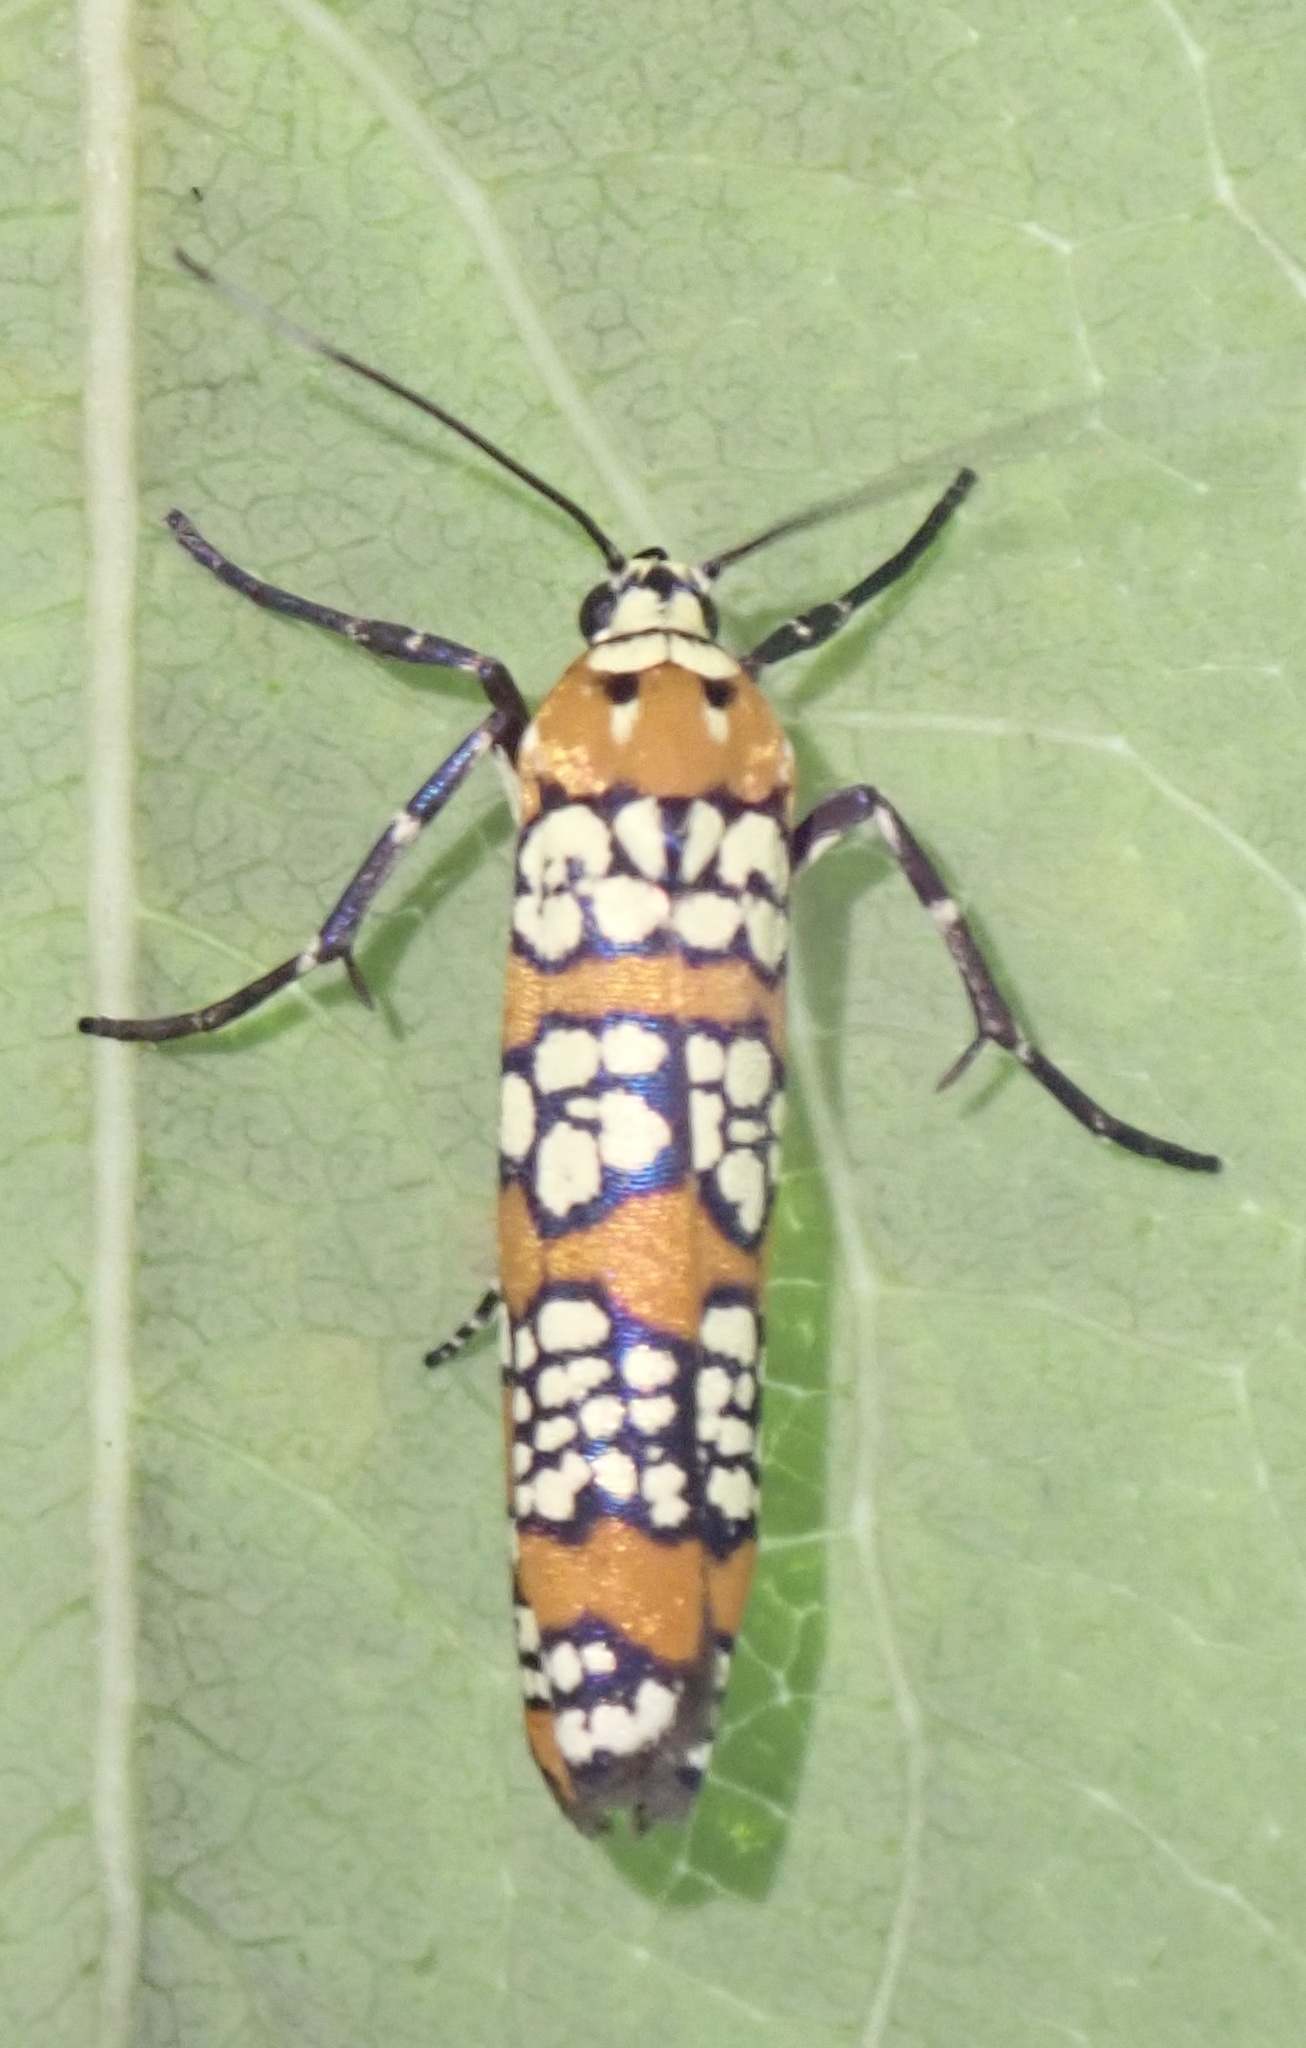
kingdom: Animalia
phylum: Arthropoda
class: Insecta
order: Lepidoptera
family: Attevidae
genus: Atteva
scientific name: Atteva punctella
